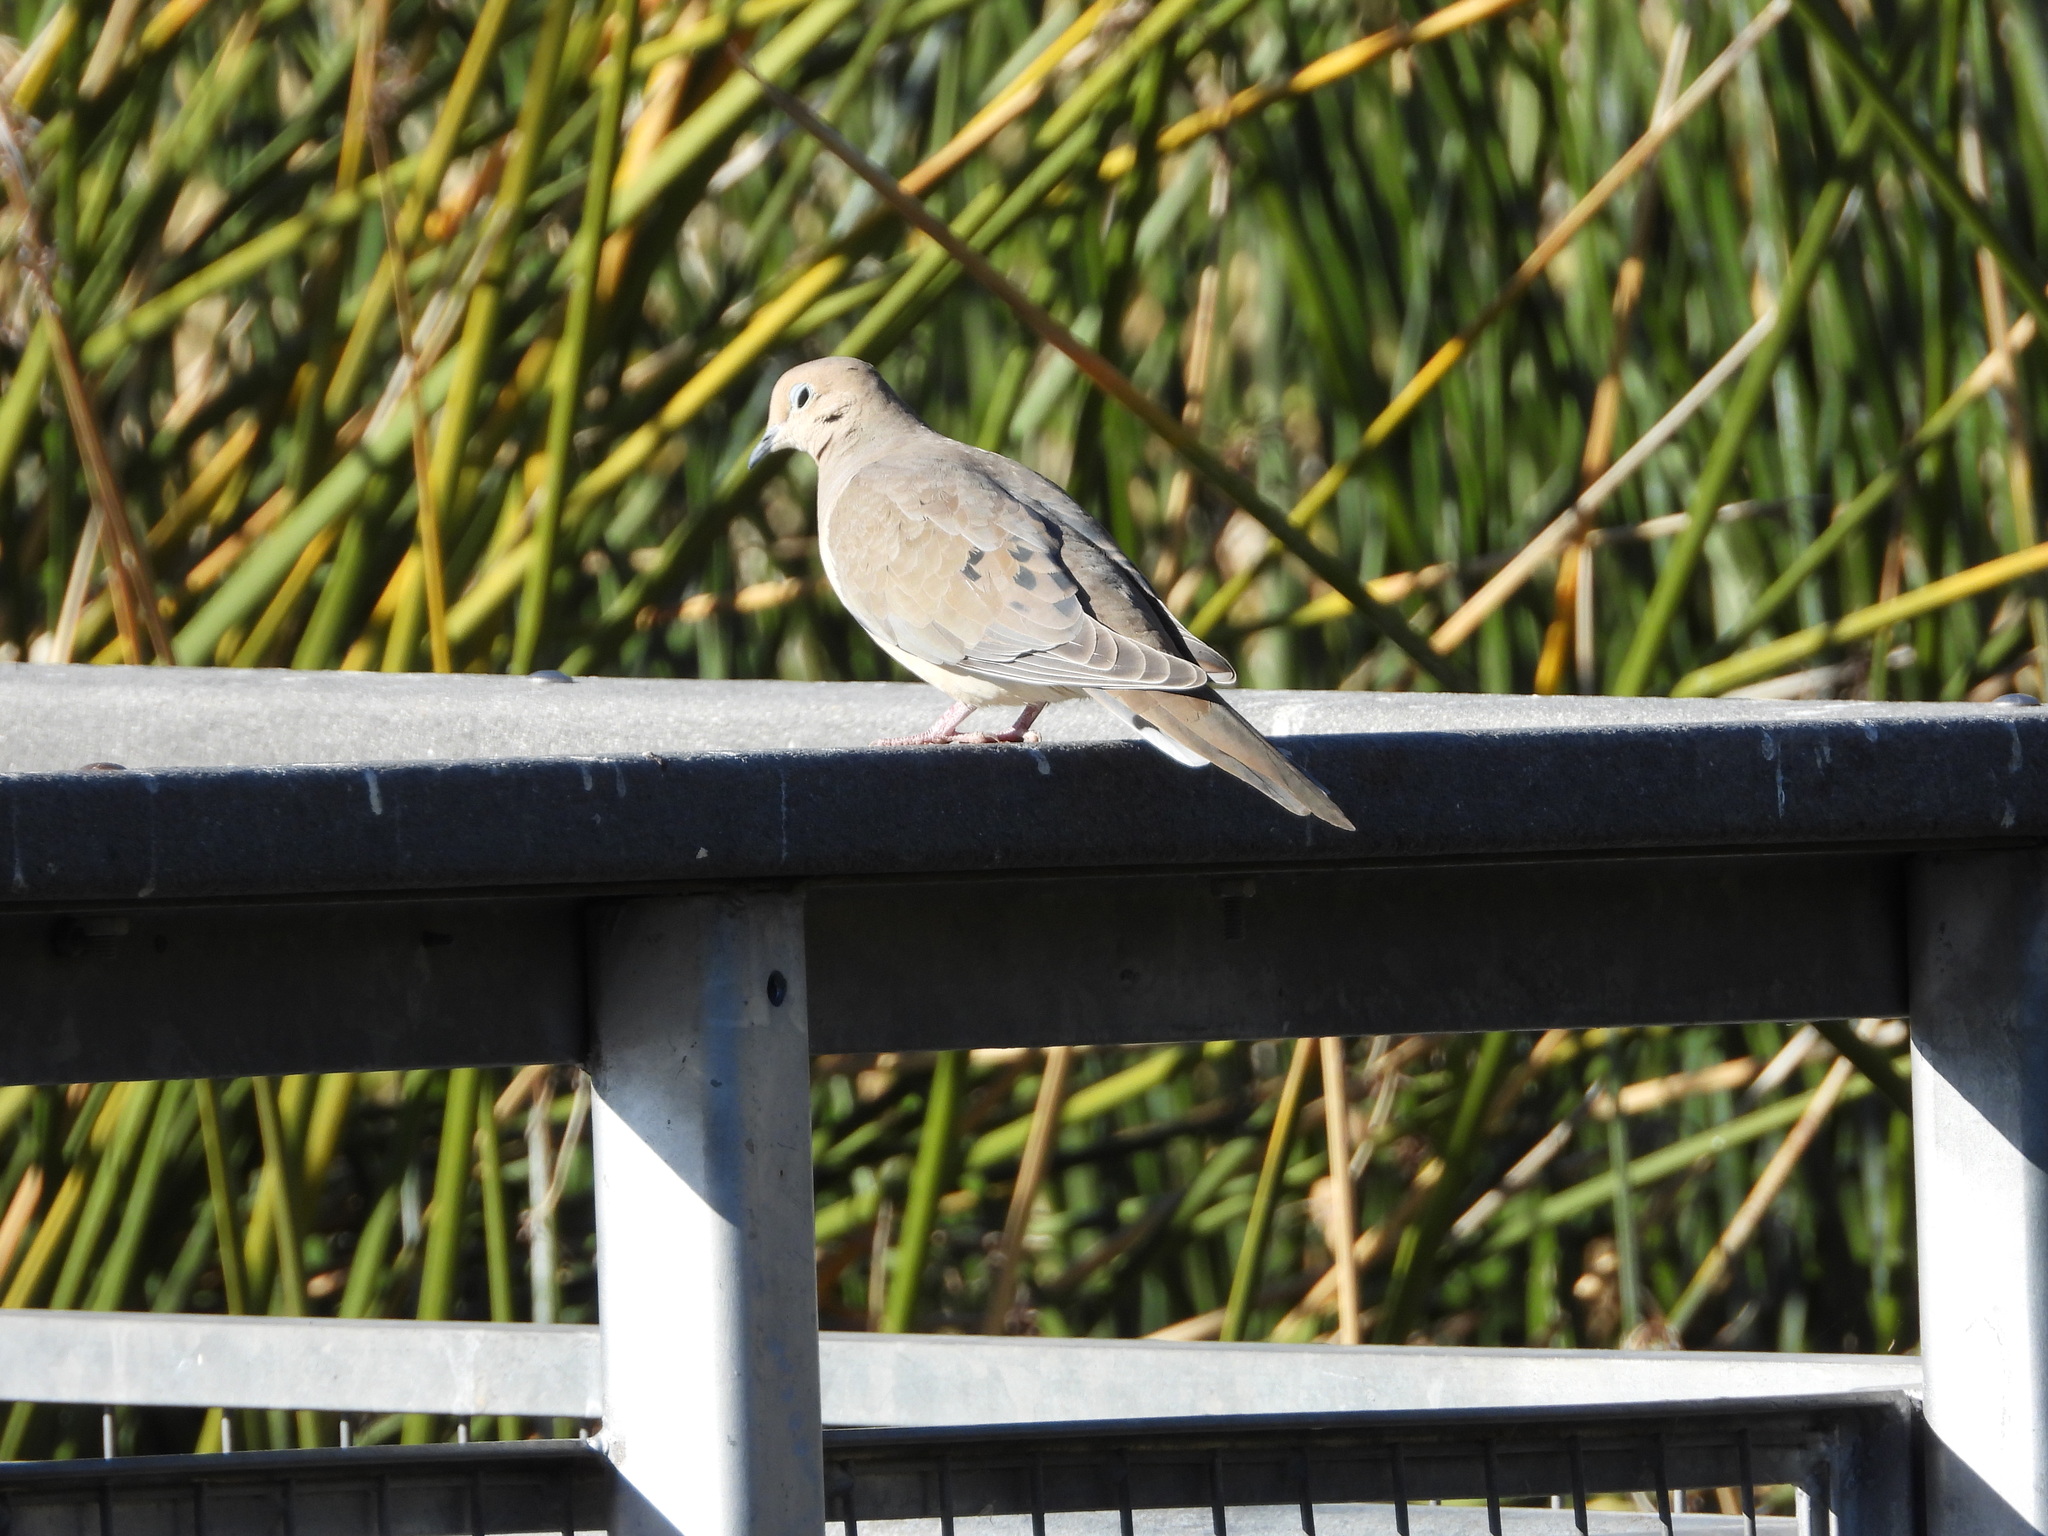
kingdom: Animalia
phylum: Chordata
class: Aves
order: Columbiformes
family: Columbidae
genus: Zenaida
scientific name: Zenaida macroura
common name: Mourning dove
